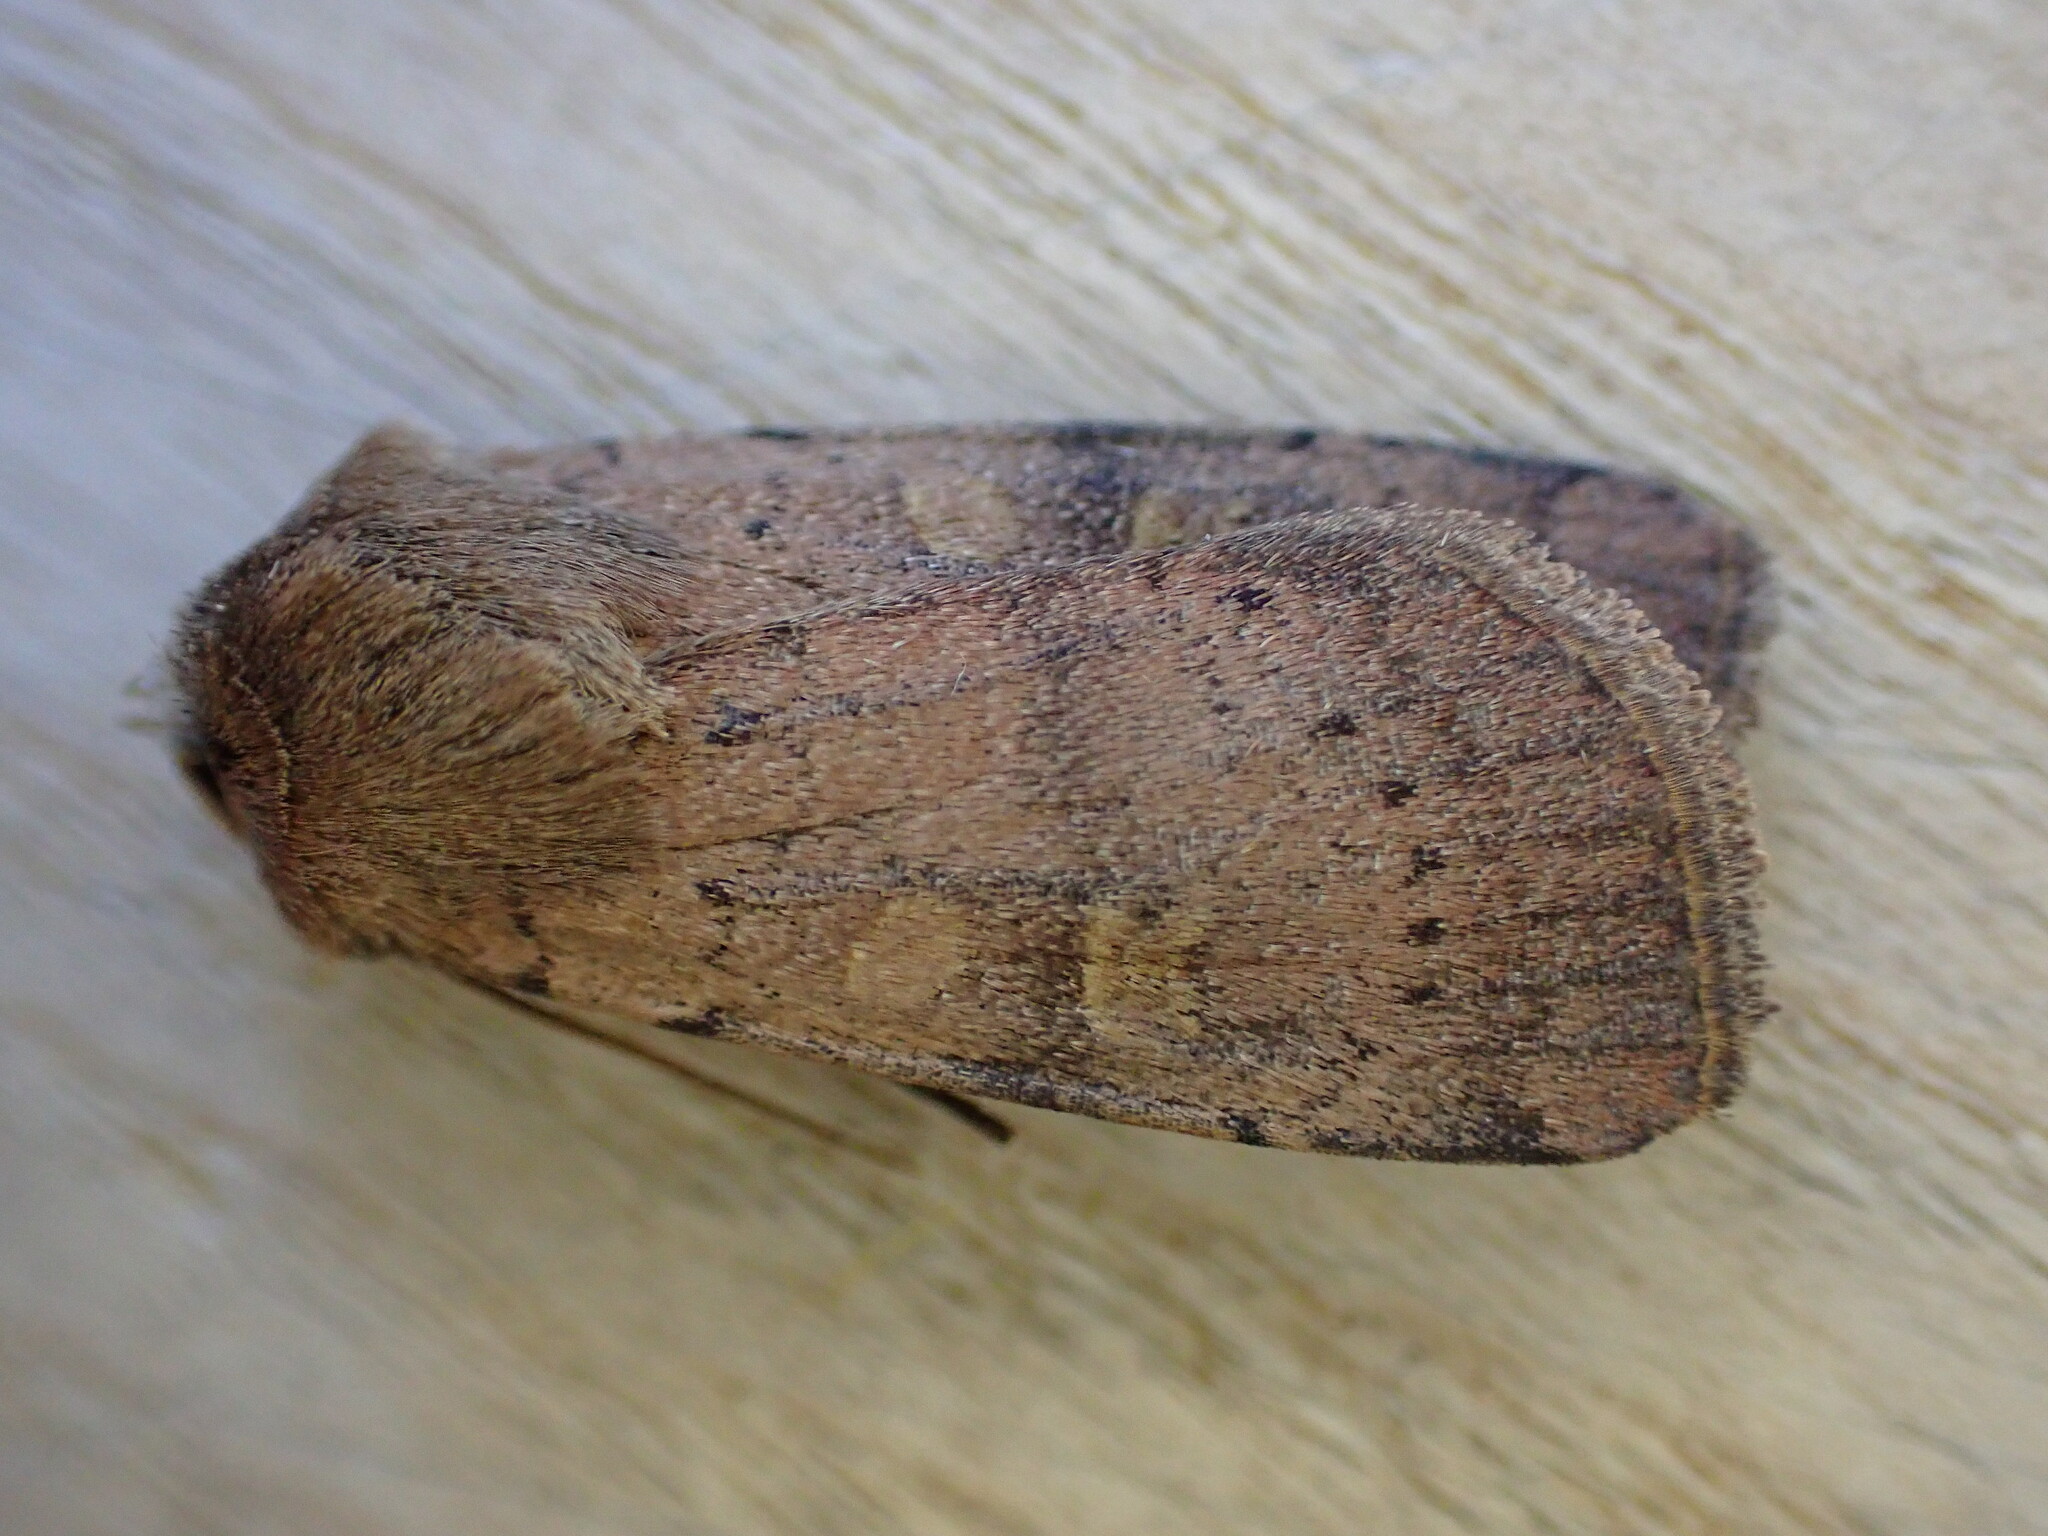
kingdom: Animalia
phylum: Arthropoda
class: Insecta
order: Lepidoptera
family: Noctuidae
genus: Xestia
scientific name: Xestia xanthographa
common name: Square-spot rustic
